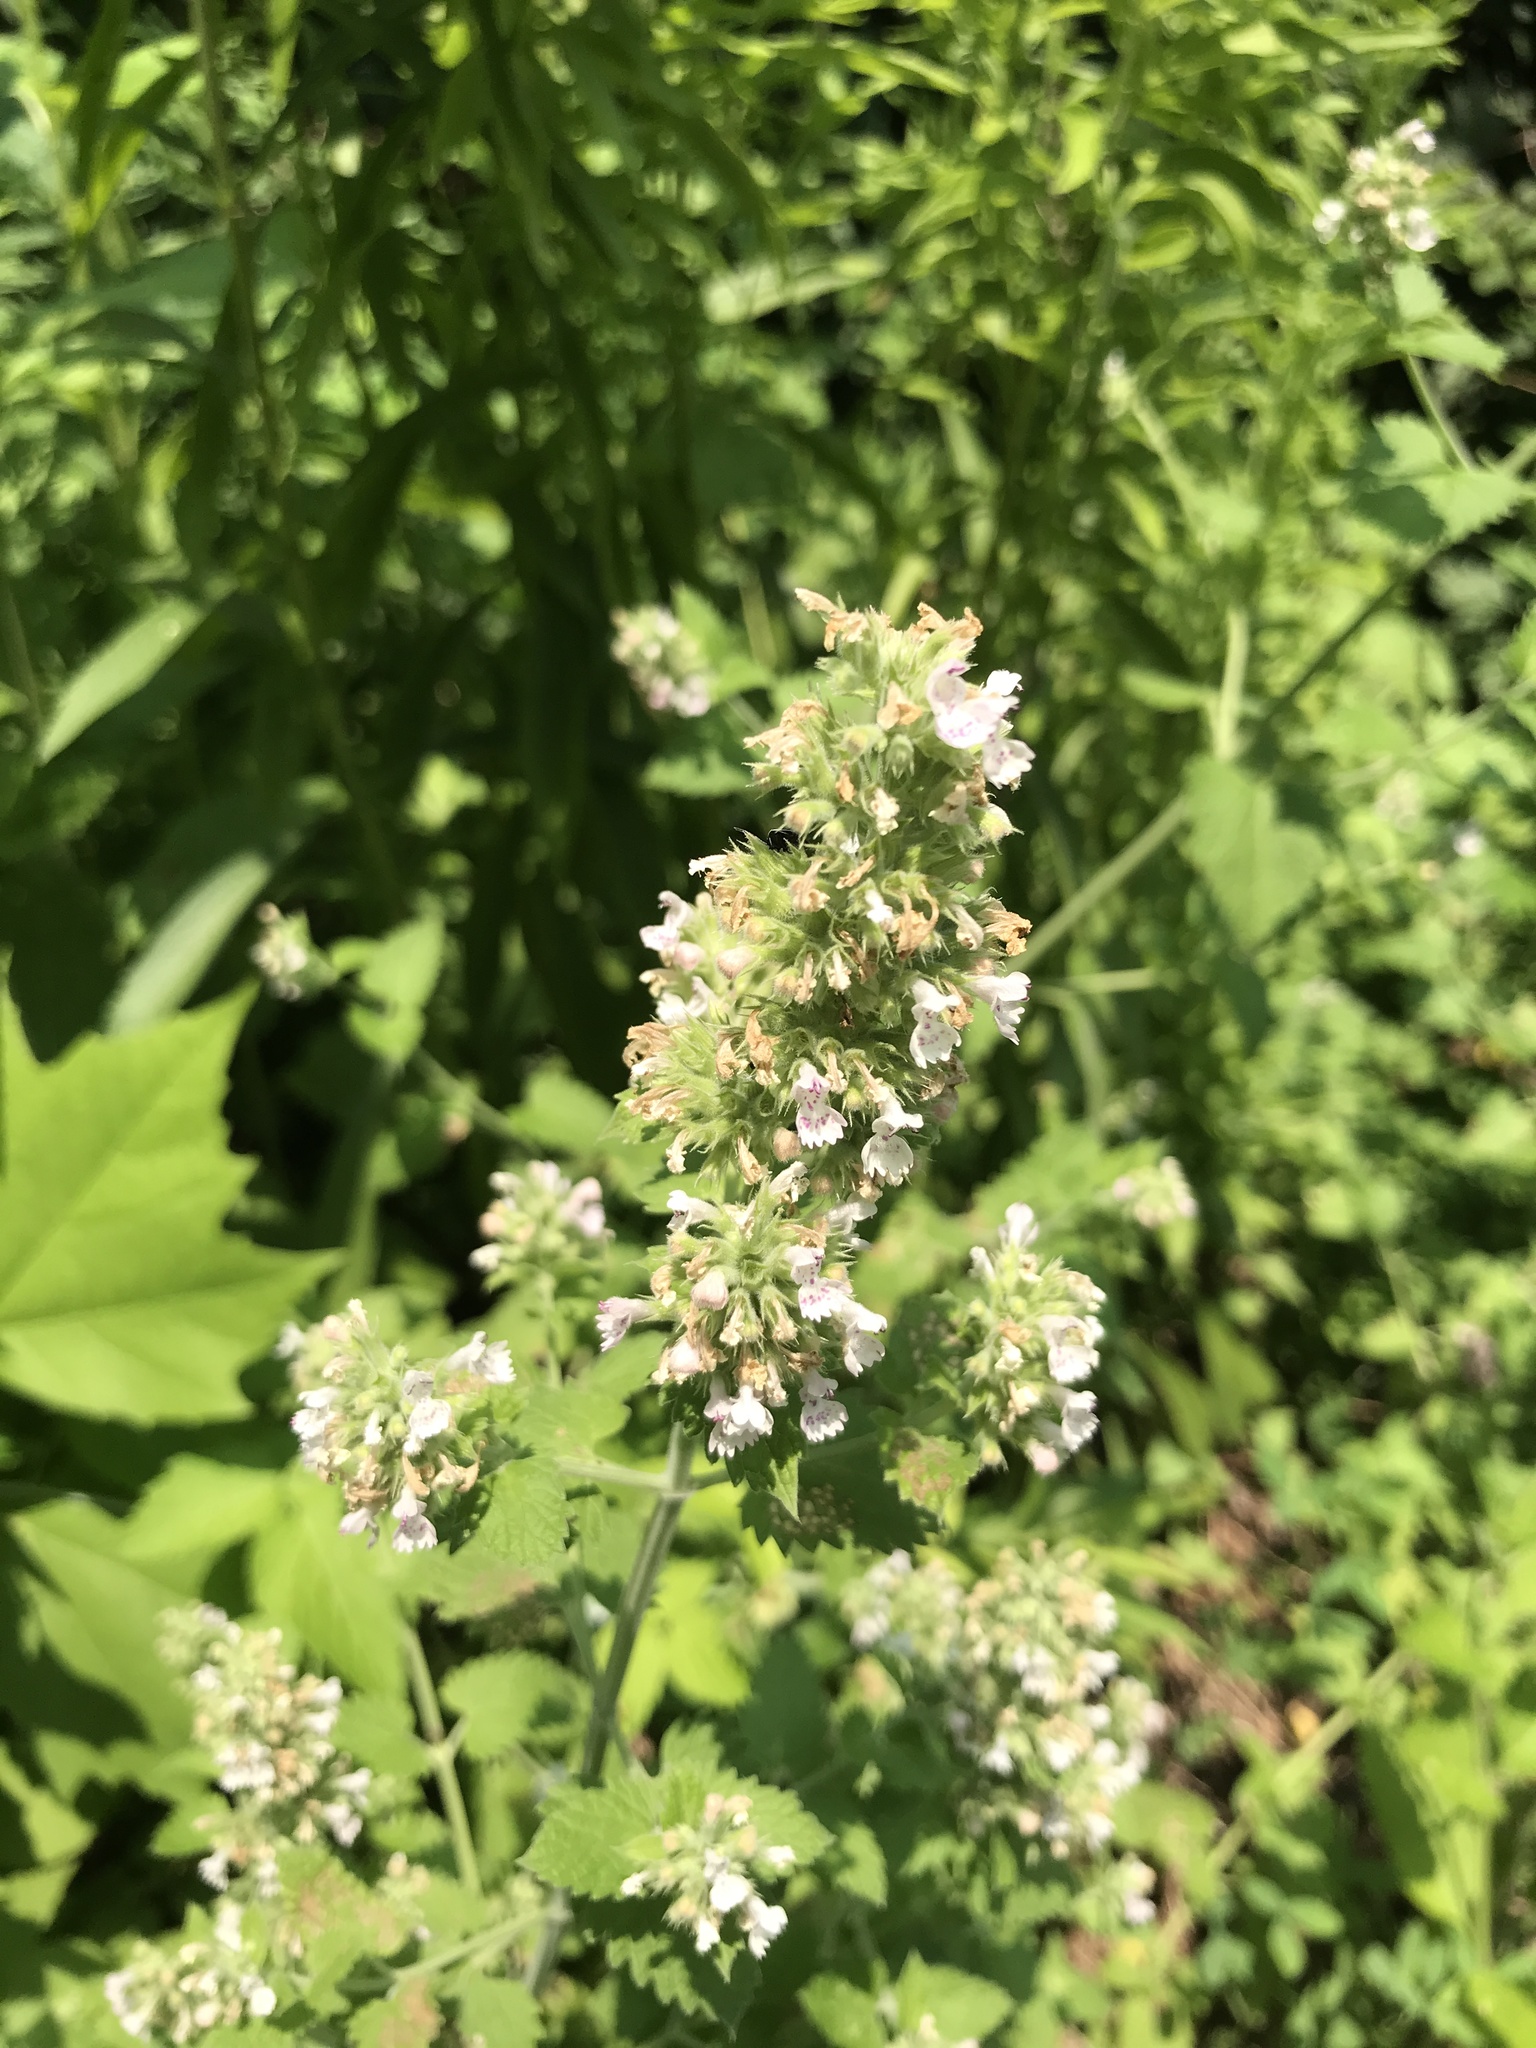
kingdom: Plantae
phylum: Tracheophyta
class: Magnoliopsida
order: Lamiales
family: Lamiaceae
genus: Nepeta
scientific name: Nepeta cataria
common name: Catnip
